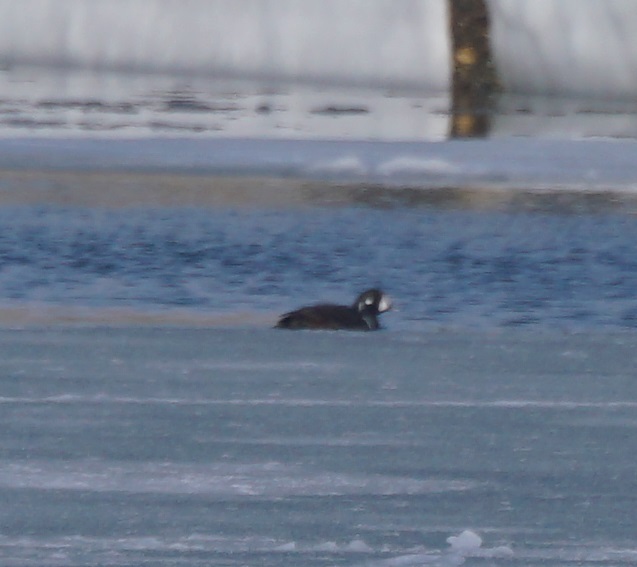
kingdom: Animalia
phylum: Chordata
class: Aves
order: Anseriformes
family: Anatidae
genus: Histrionicus
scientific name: Histrionicus histrionicus
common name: Harlequin duck
